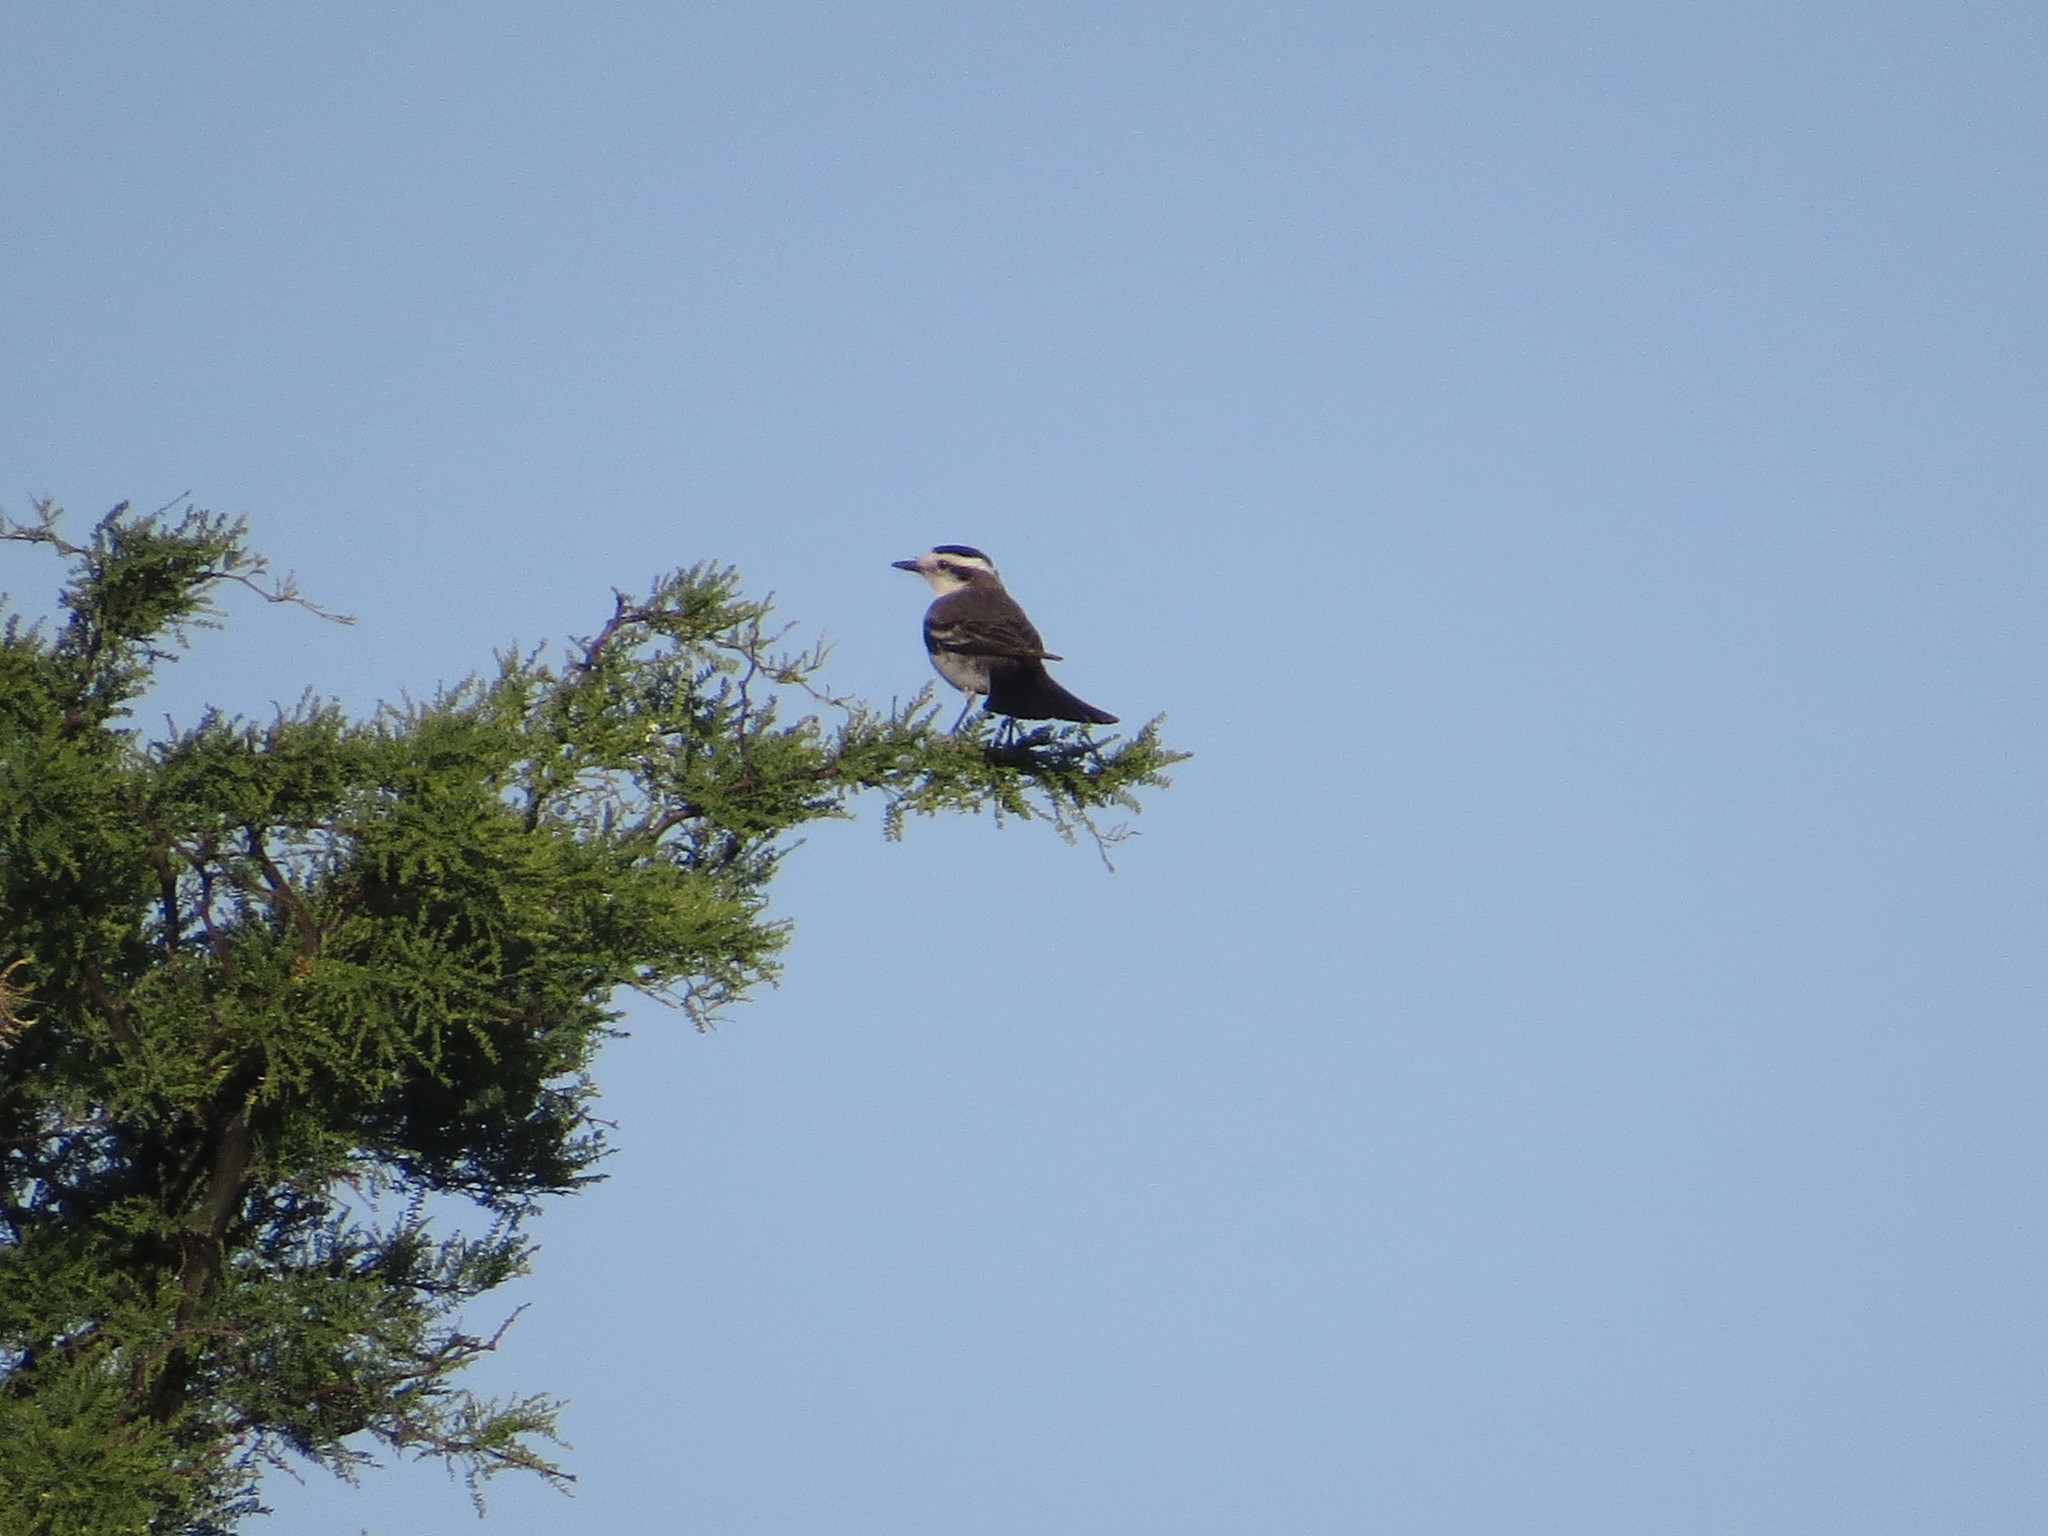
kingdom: Animalia
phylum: Chordata
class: Aves
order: Passeriformes
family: Tyrannidae
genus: Xolmis
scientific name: Xolmis coronatus
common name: Black-crowned monjita
